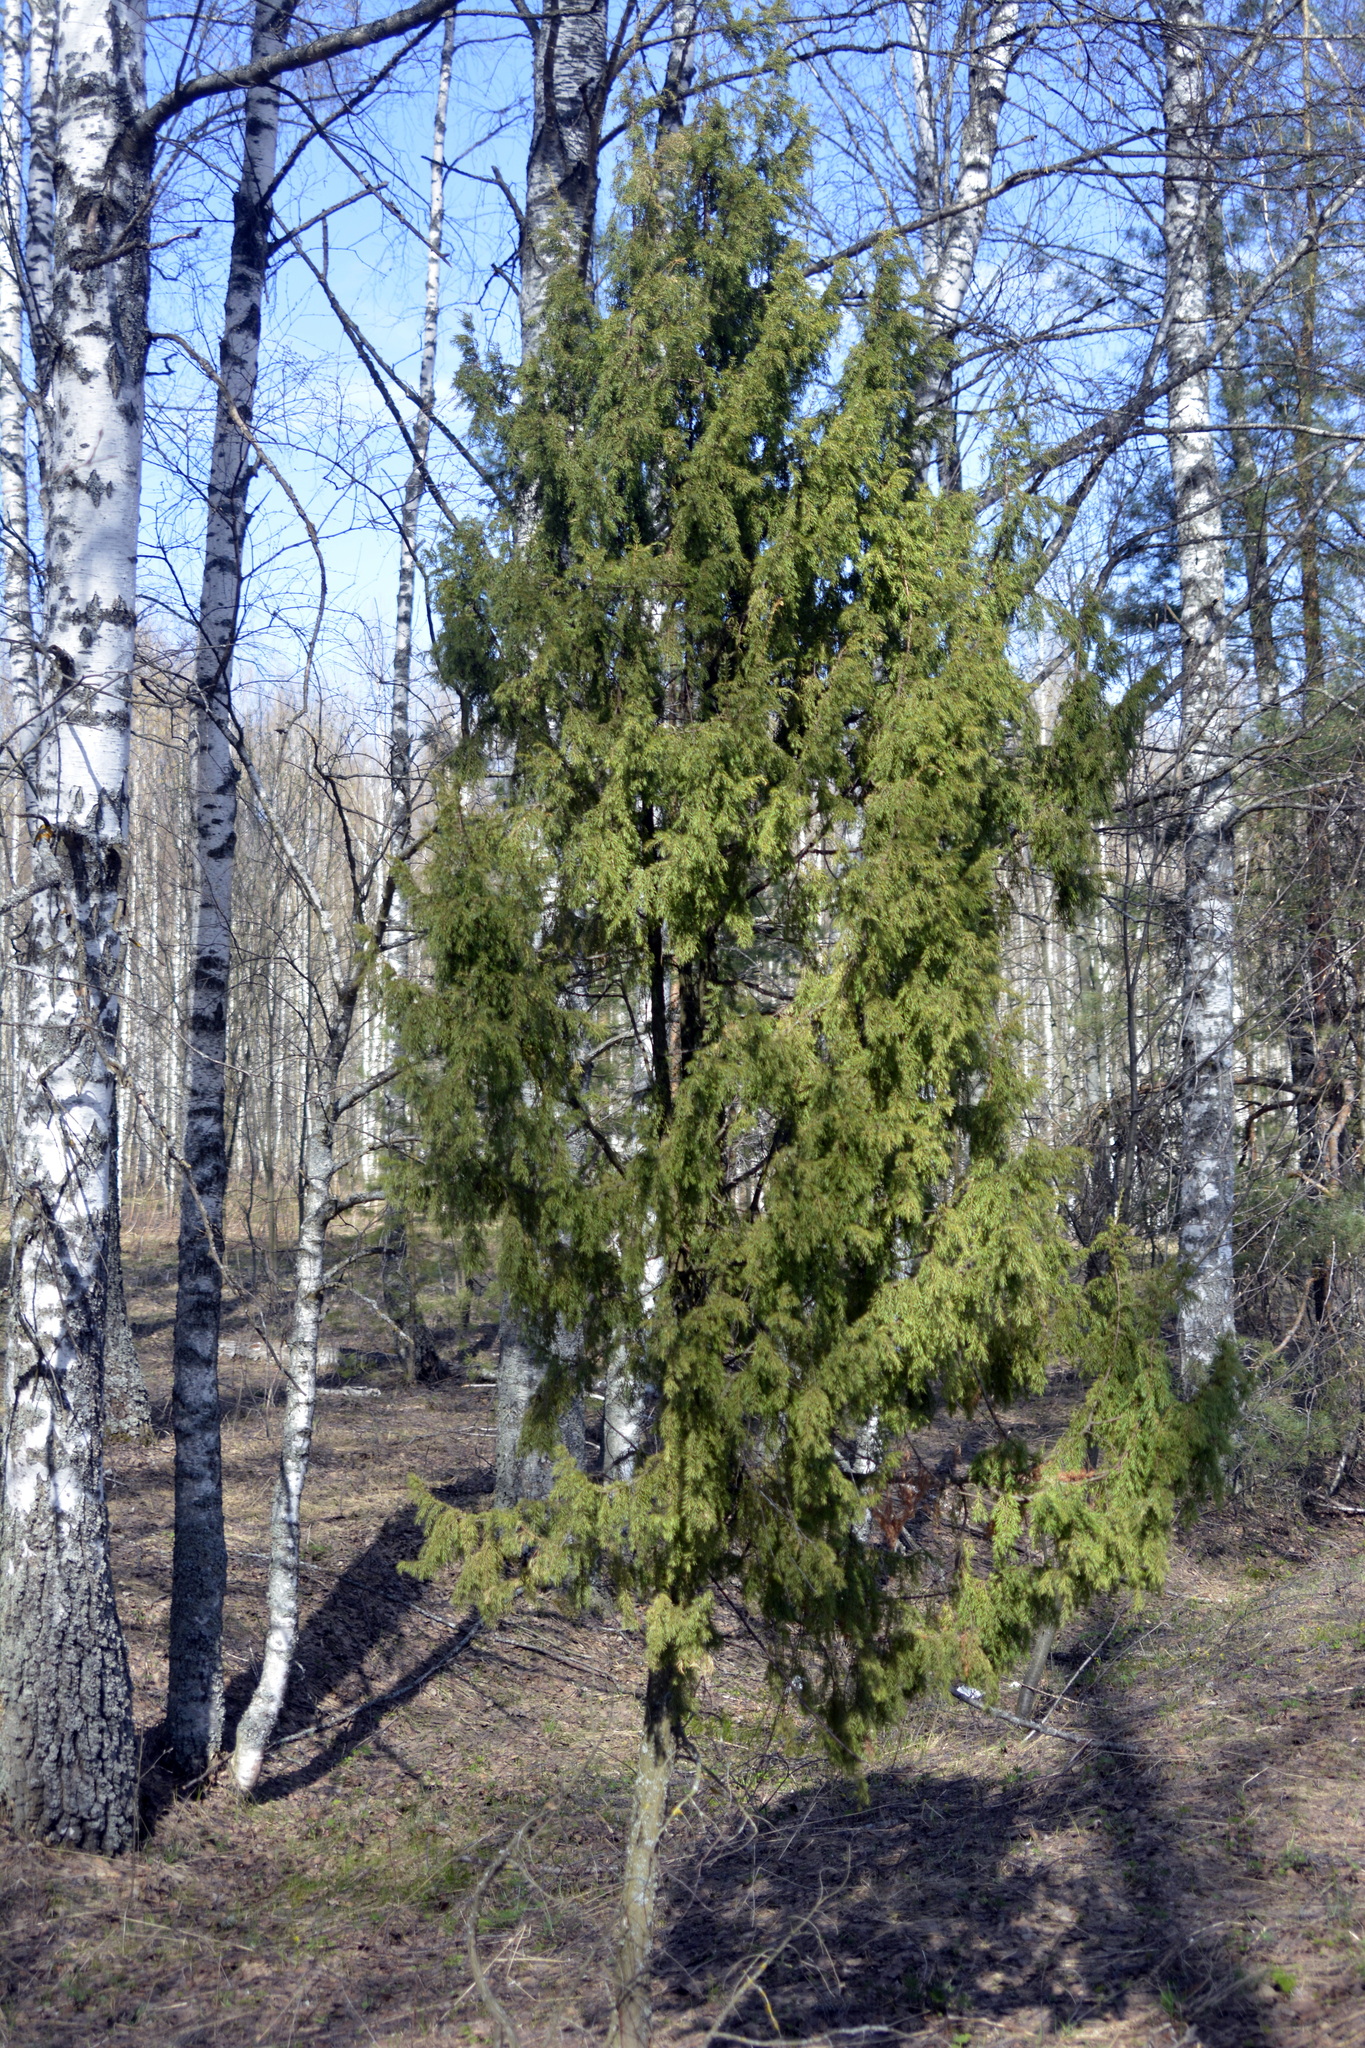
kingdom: Plantae
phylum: Tracheophyta
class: Pinopsida
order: Pinales
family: Cupressaceae
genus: Juniperus
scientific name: Juniperus communis
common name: Common juniper
